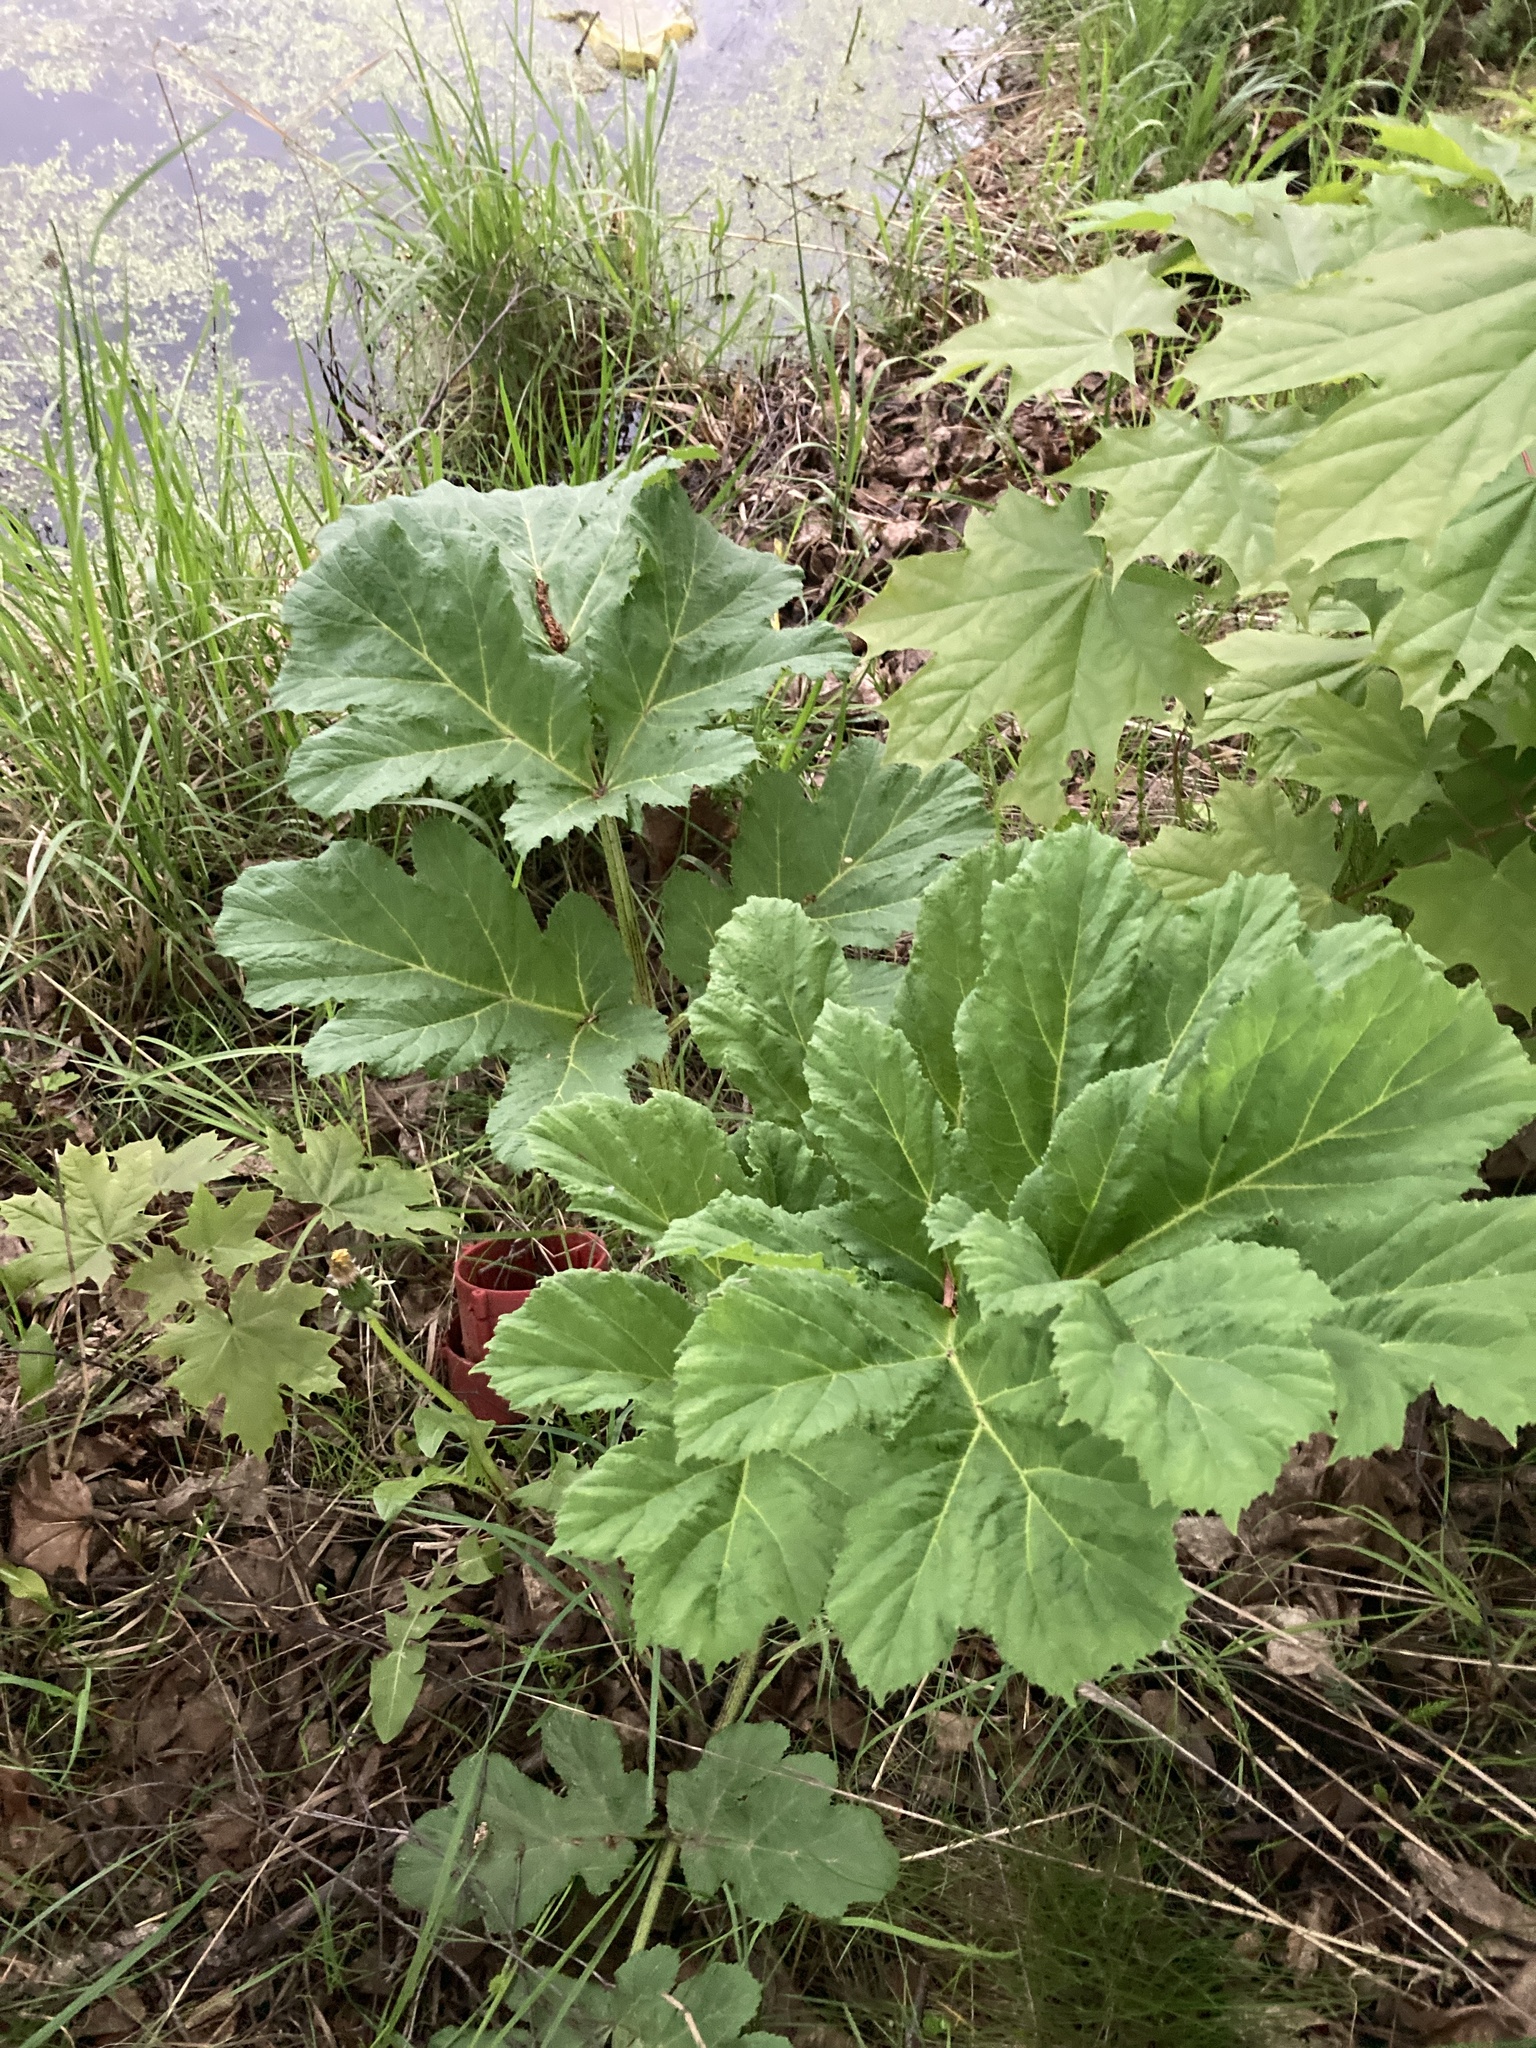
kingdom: Plantae
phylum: Tracheophyta
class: Magnoliopsida
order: Apiales
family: Apiaceae
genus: Heracleum
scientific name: Heracleum sosnowskyi
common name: Sosnowsky's hogweed
